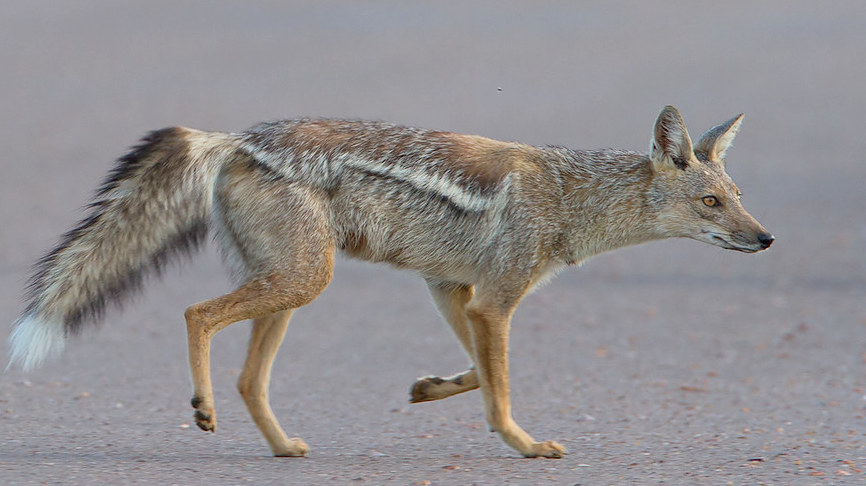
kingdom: Animalia
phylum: Chordata
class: Mammalia
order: Carnivora
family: Canidae
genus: Lupulella
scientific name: Lupulella
